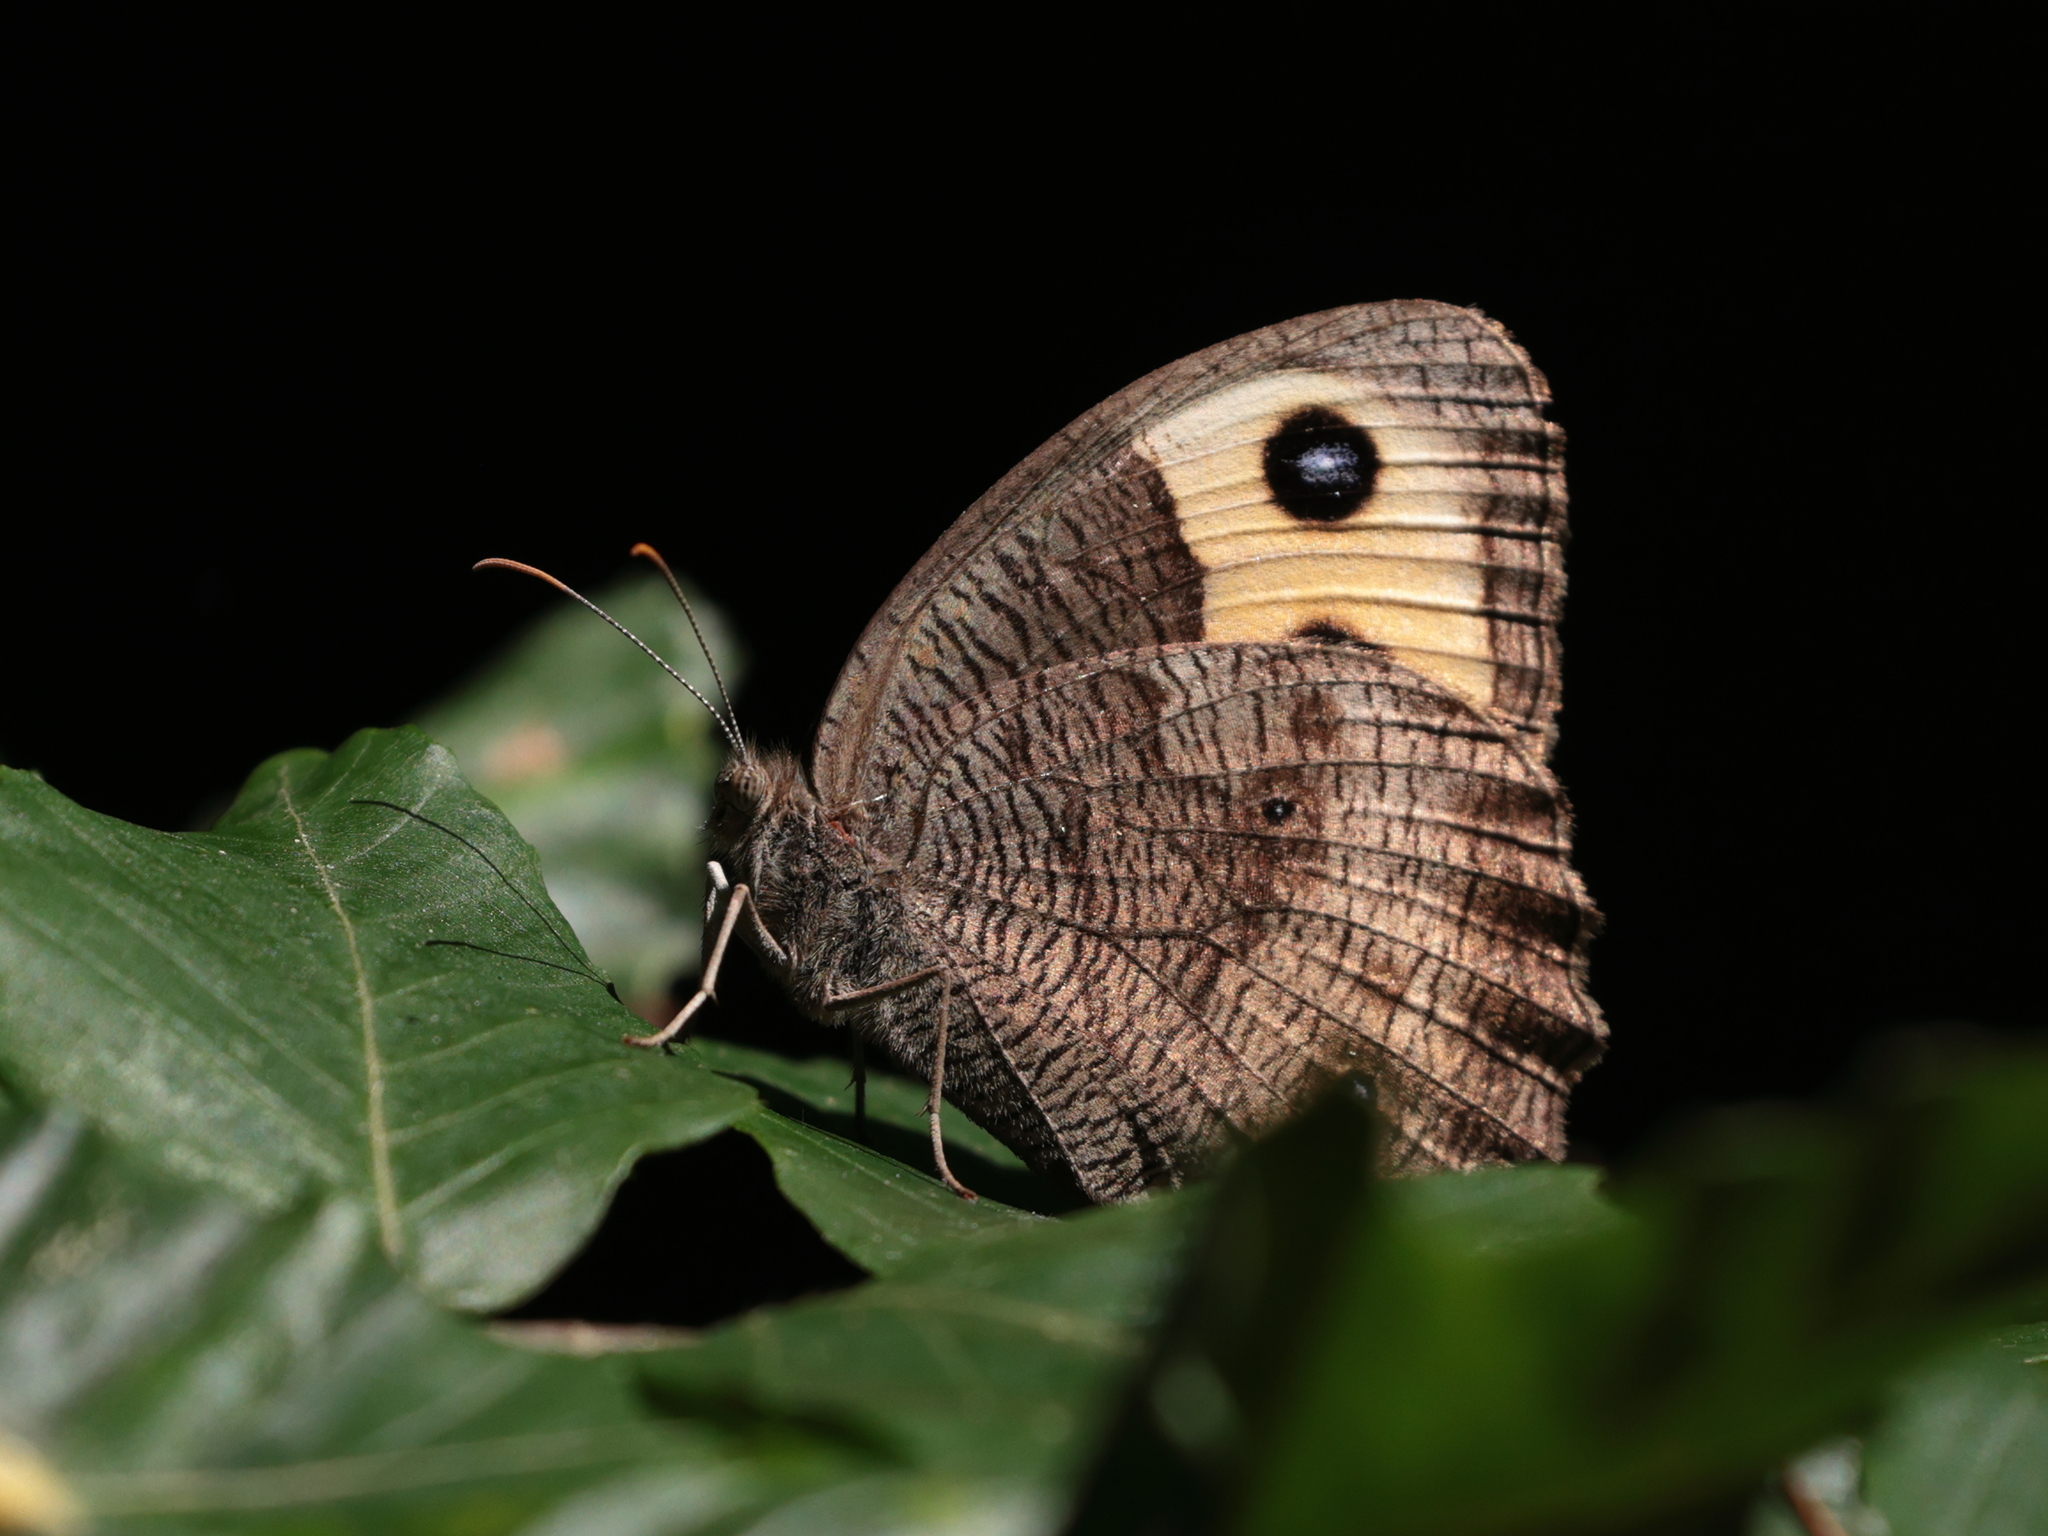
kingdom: Animalia
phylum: Arthropoda
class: Insecta
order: Lepidoptera
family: Nymphalidae
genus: Cercyonis
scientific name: Cercyonis pegala
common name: Common wood-nymph
